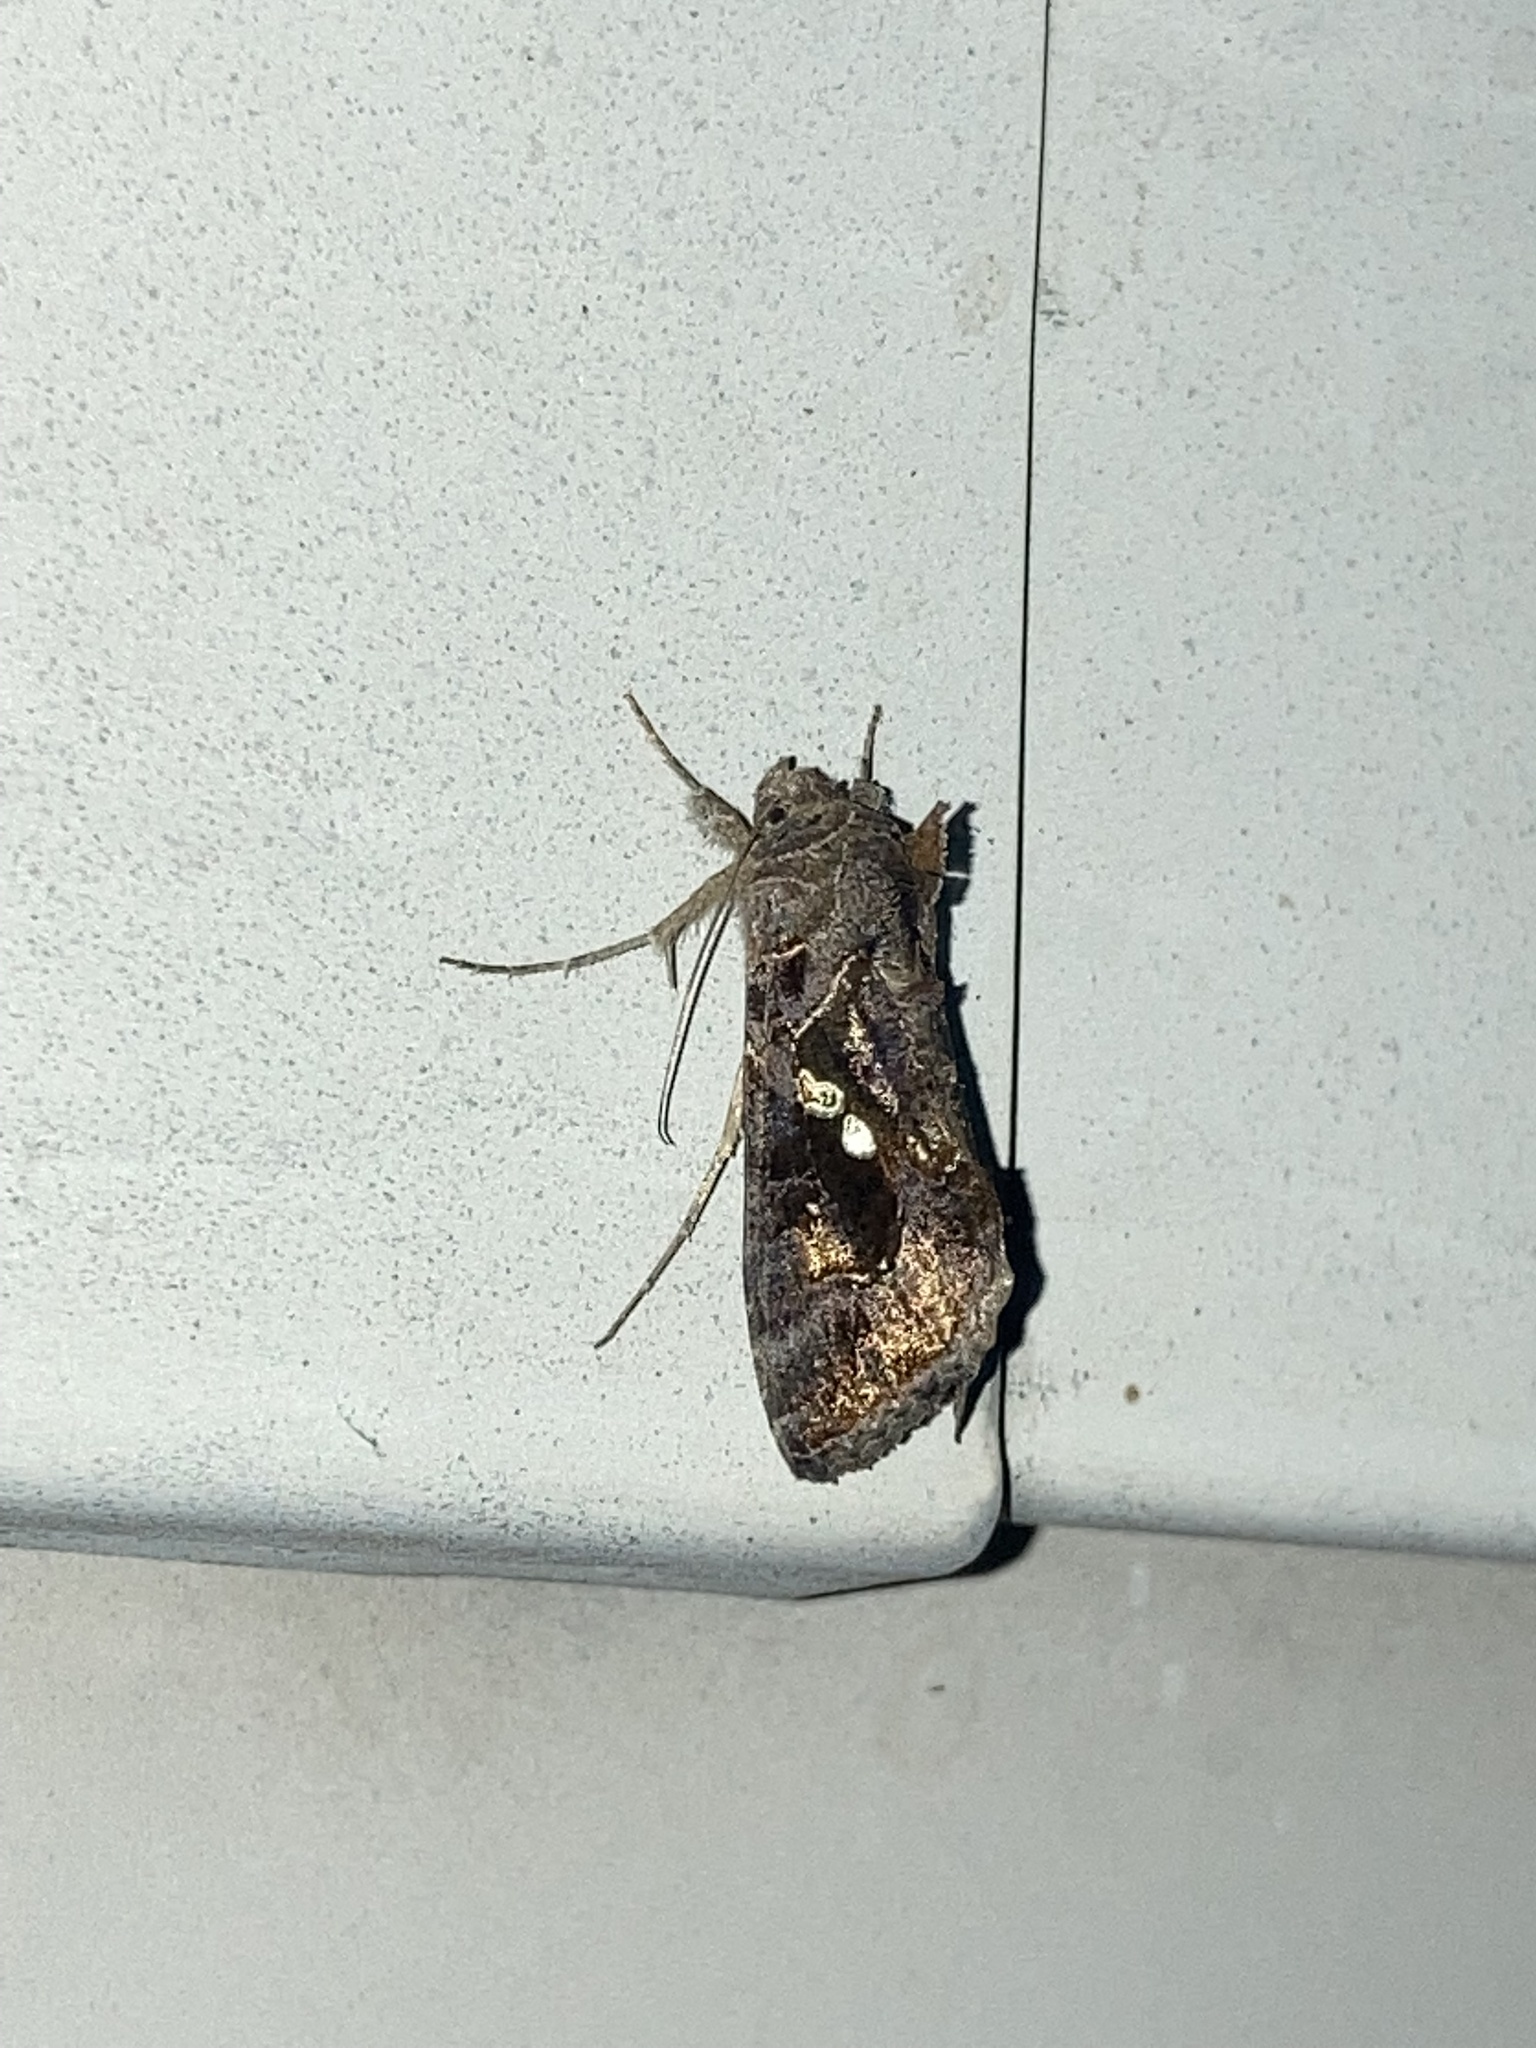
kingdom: Animalia
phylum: Arthropoda
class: Insecta
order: Lepidoptera
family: Noctuidae
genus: Chrysodeixis
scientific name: Chrysodeixis includens
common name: Cutworm moth
